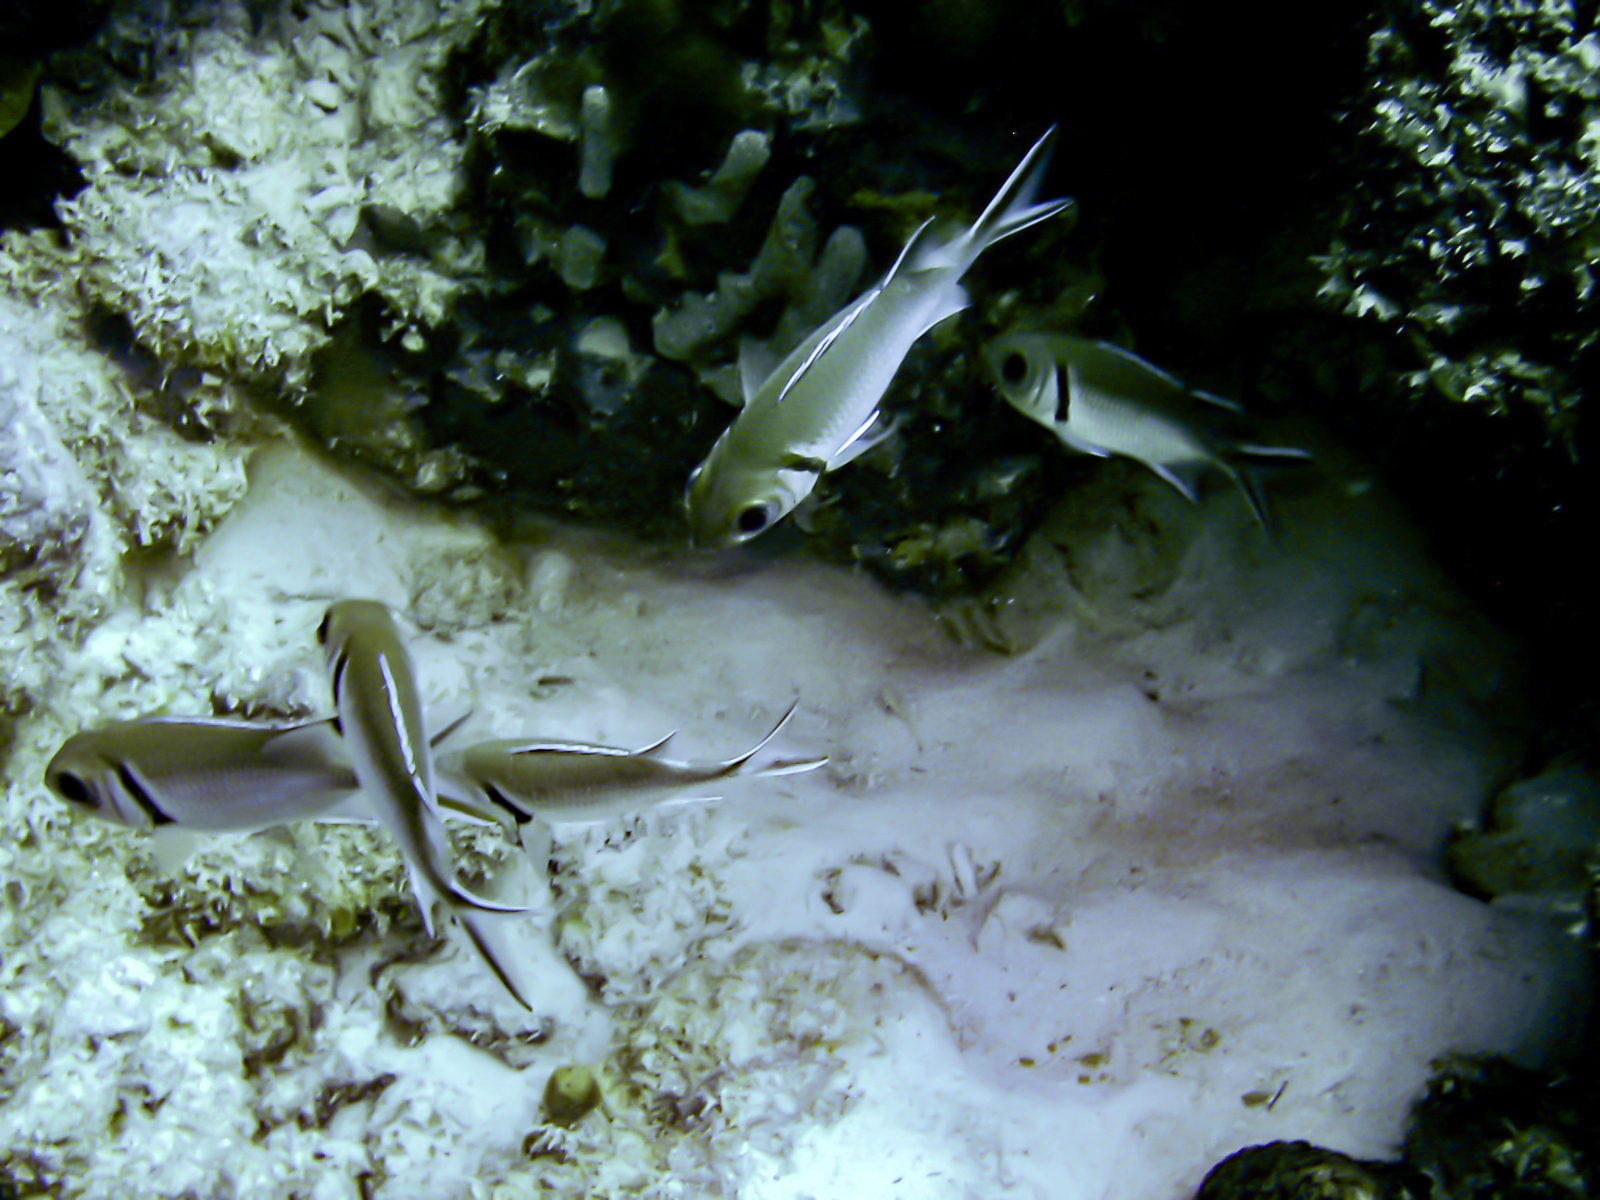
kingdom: Animalia
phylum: Chordata
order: Beryciformes
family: Holocentridae
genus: Myripristis
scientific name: Myripristis jacobus
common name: Blackbar soldierfish
